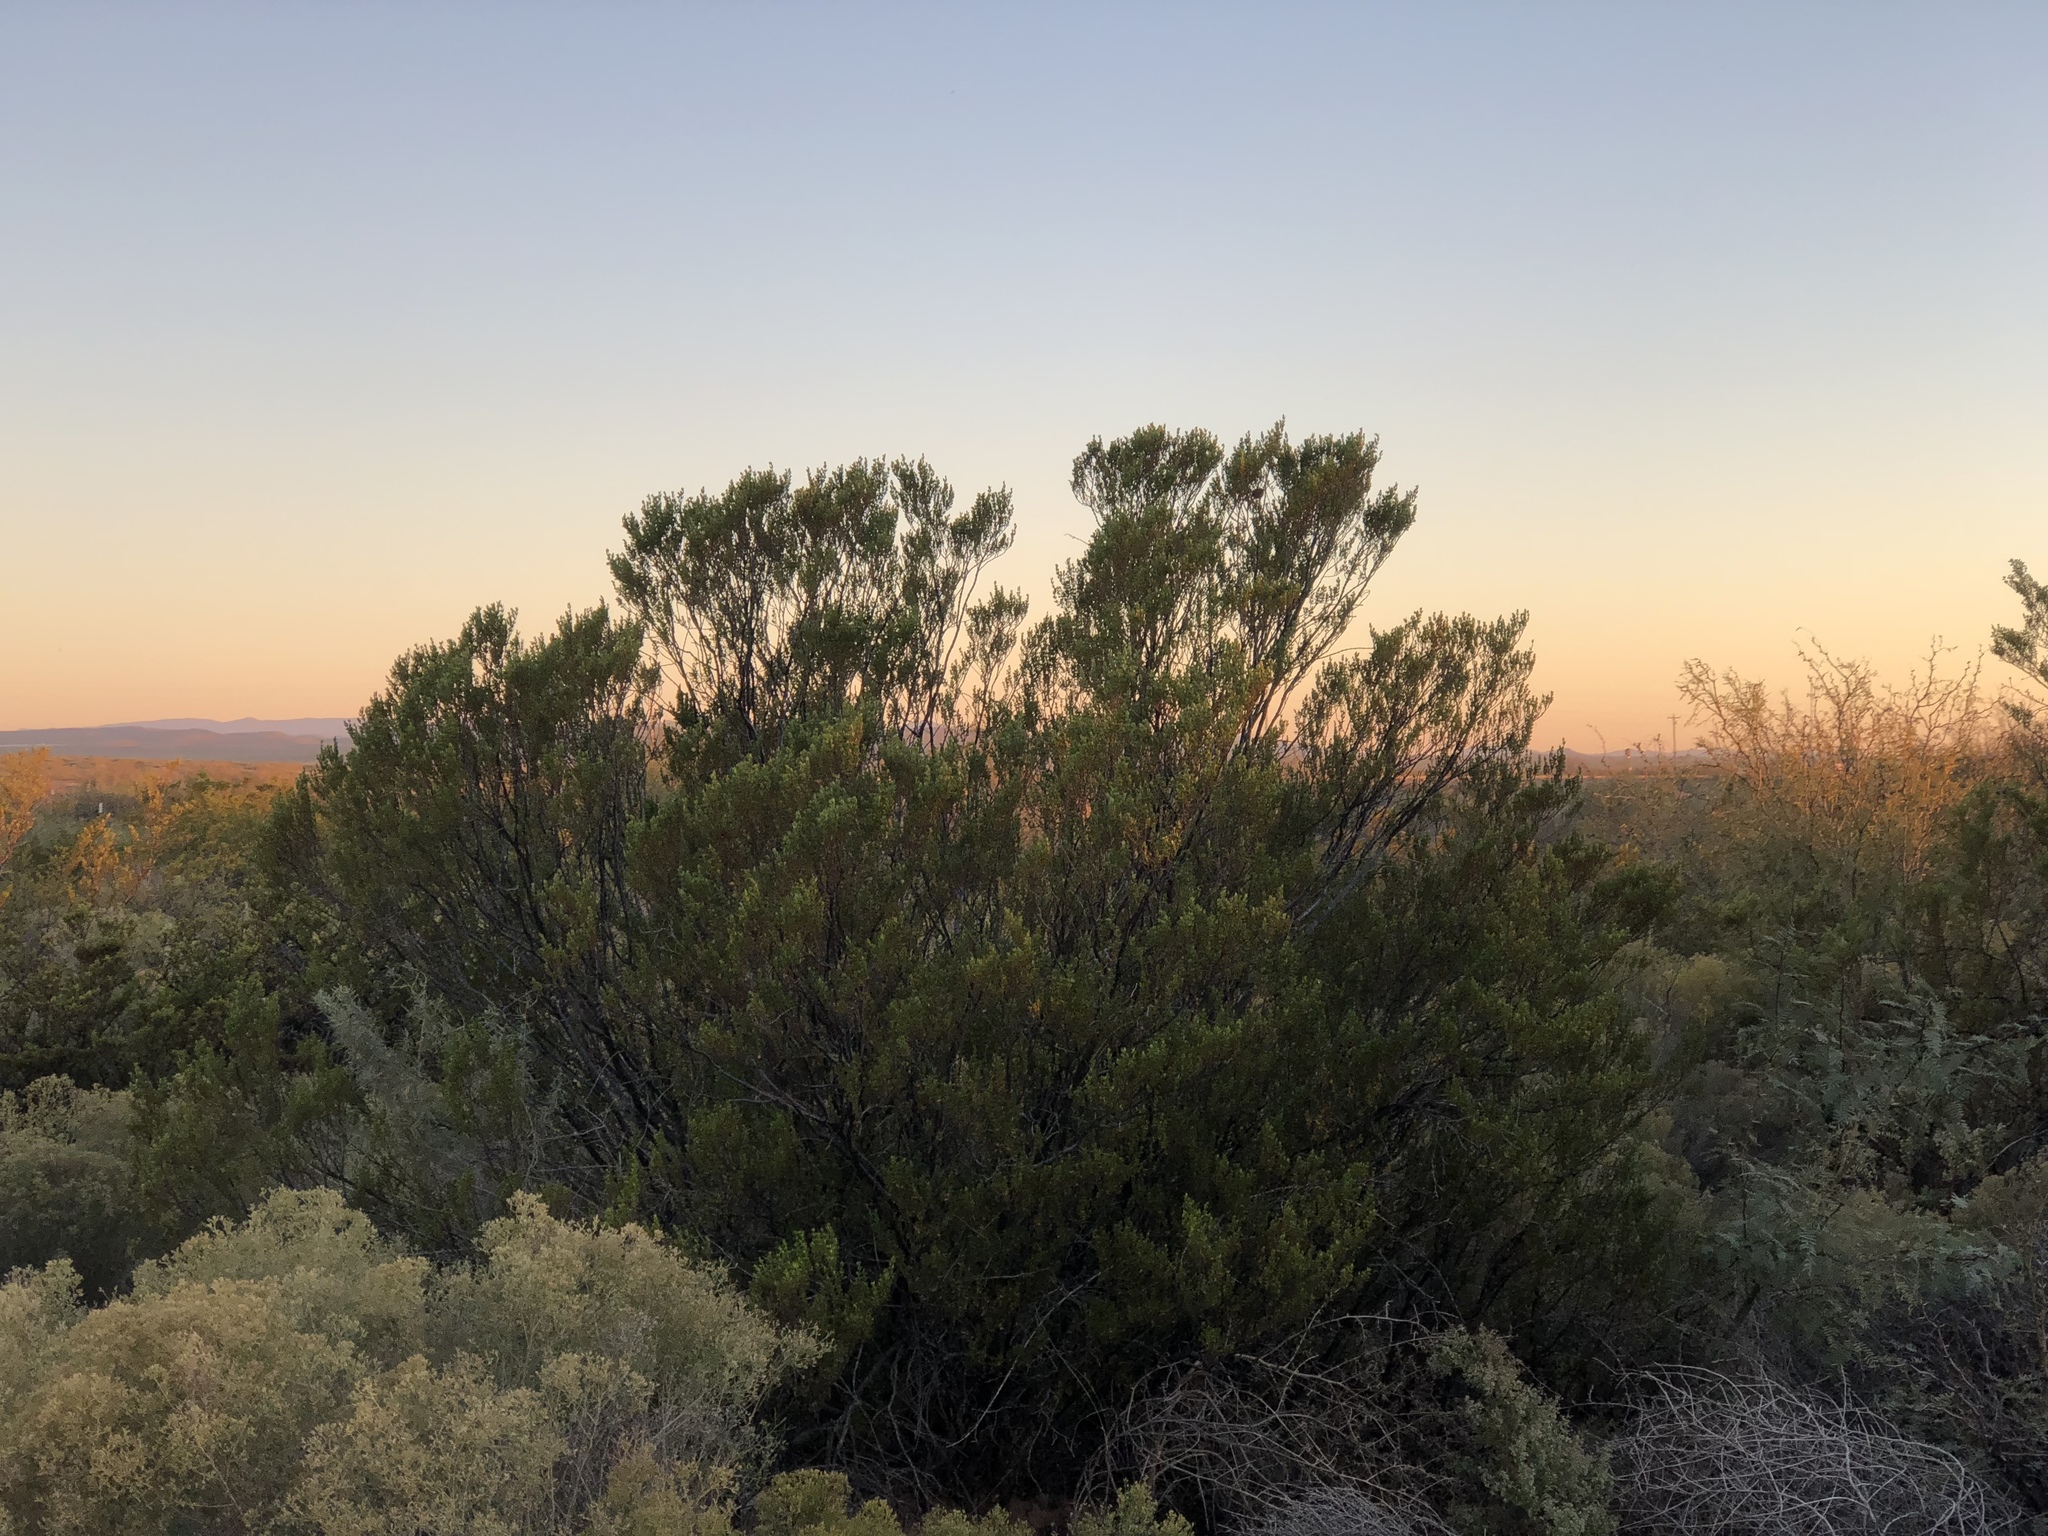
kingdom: Plantae
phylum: Tracheophyta
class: Magnoliopsida
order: Zygophyllales
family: Zygophyllaceae
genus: Larrea
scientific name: Larrea tridentata
